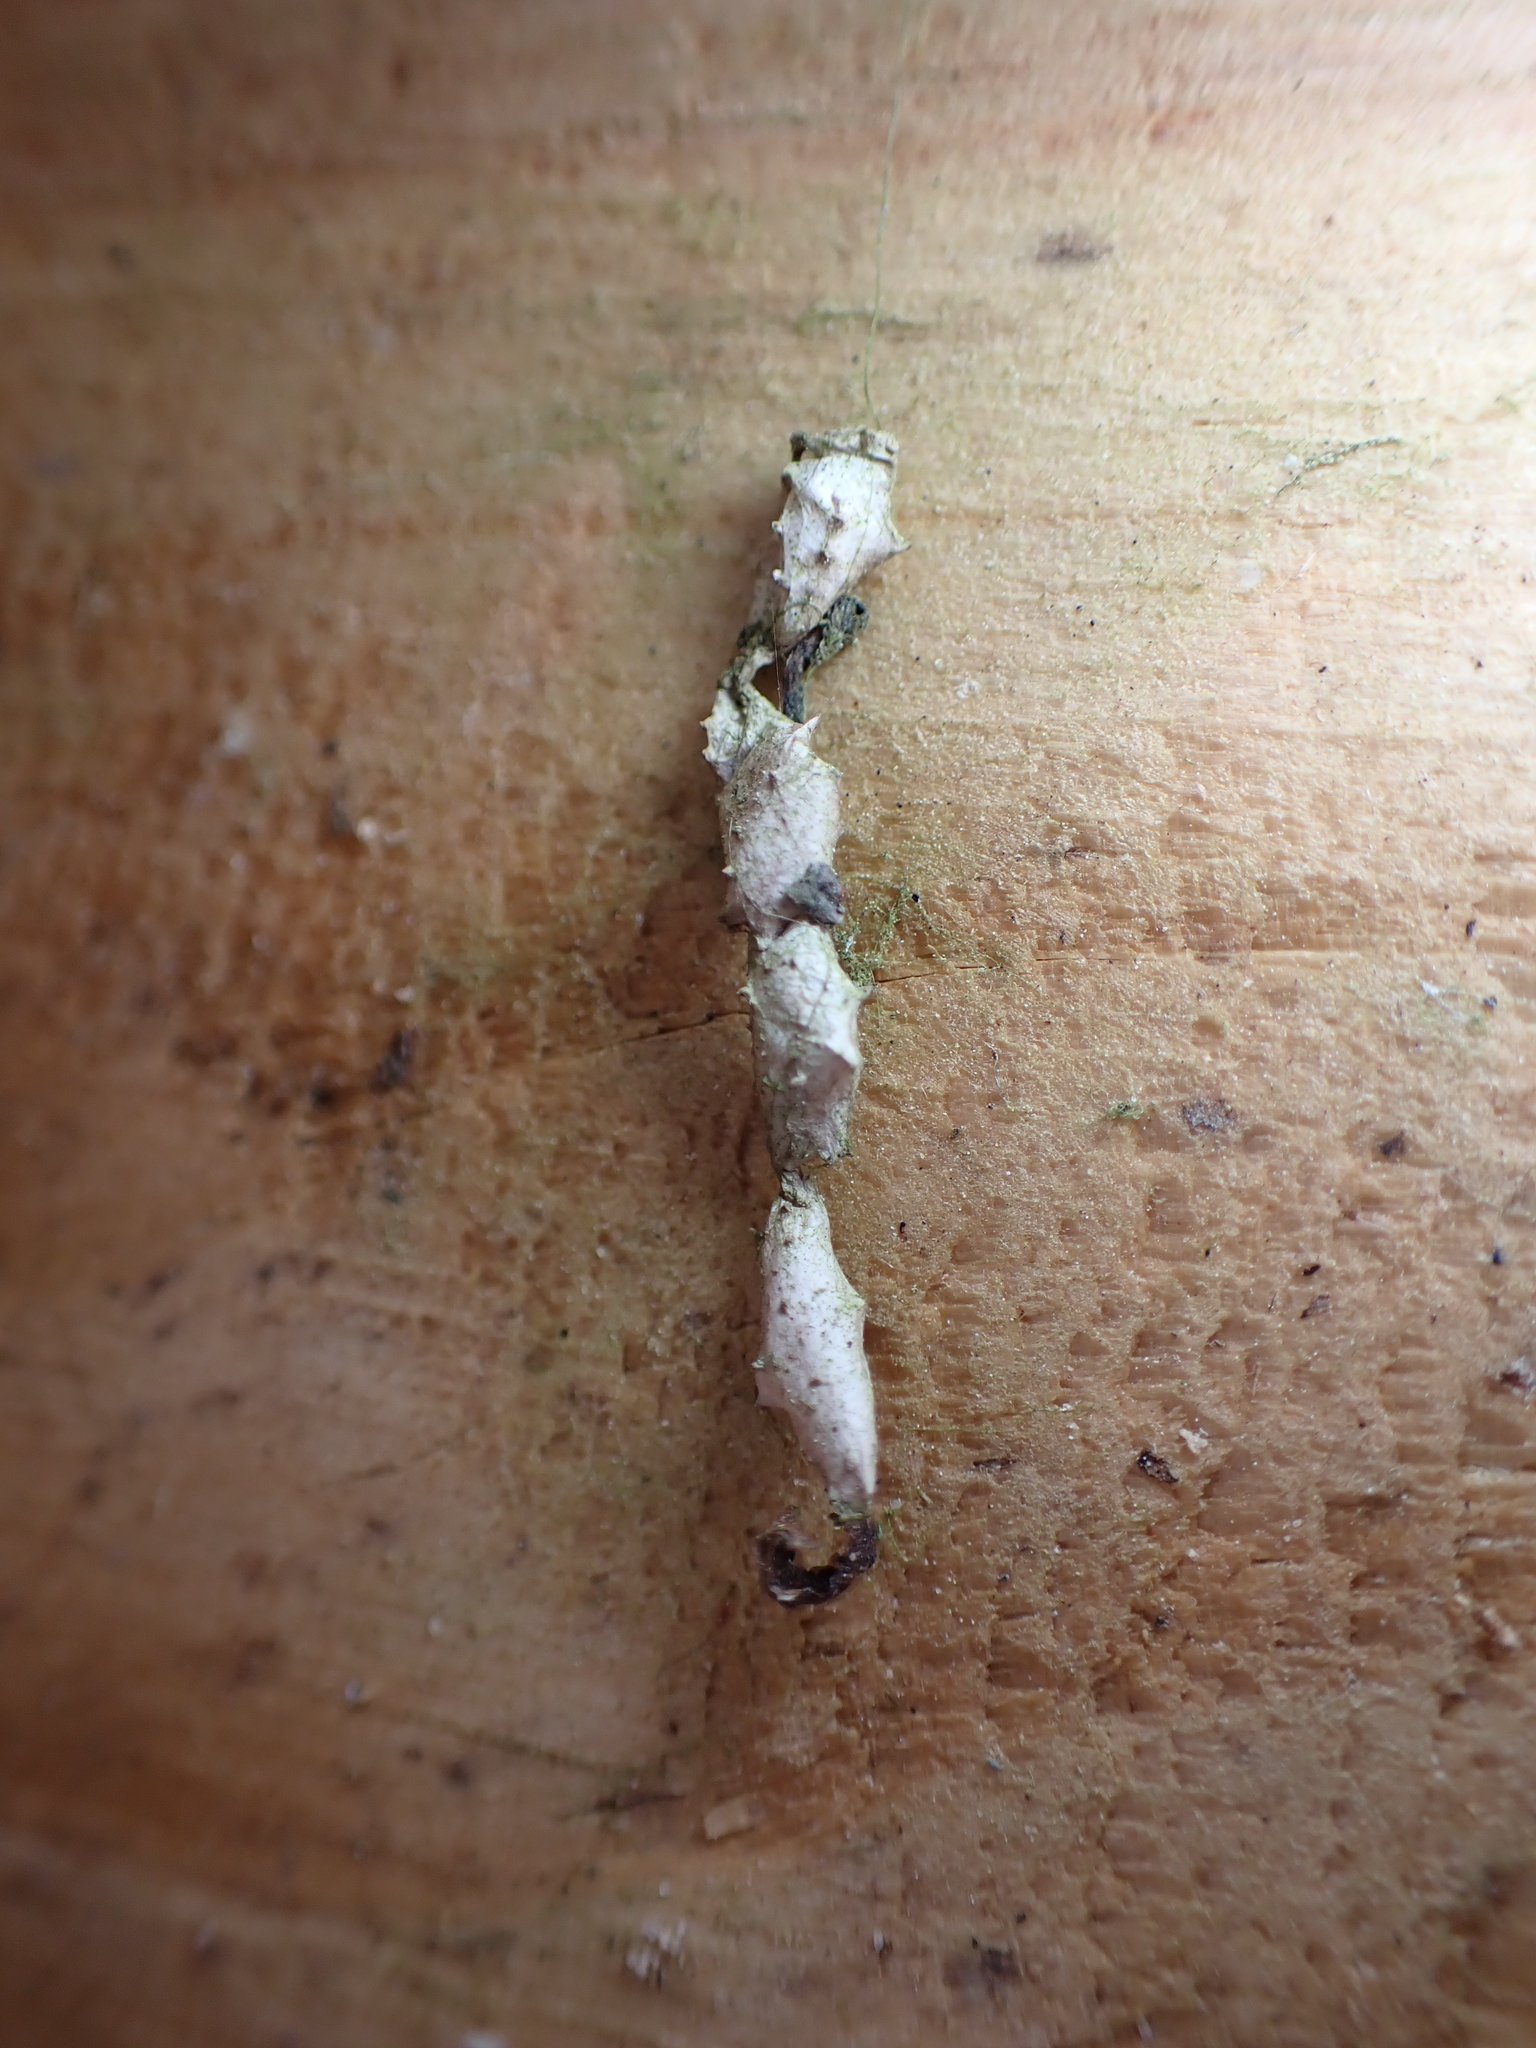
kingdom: Animalia
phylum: Arthropoda
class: Arachnida
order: Araneae
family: Uloboridae
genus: Uloborus
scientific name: Uloborus glomosus
